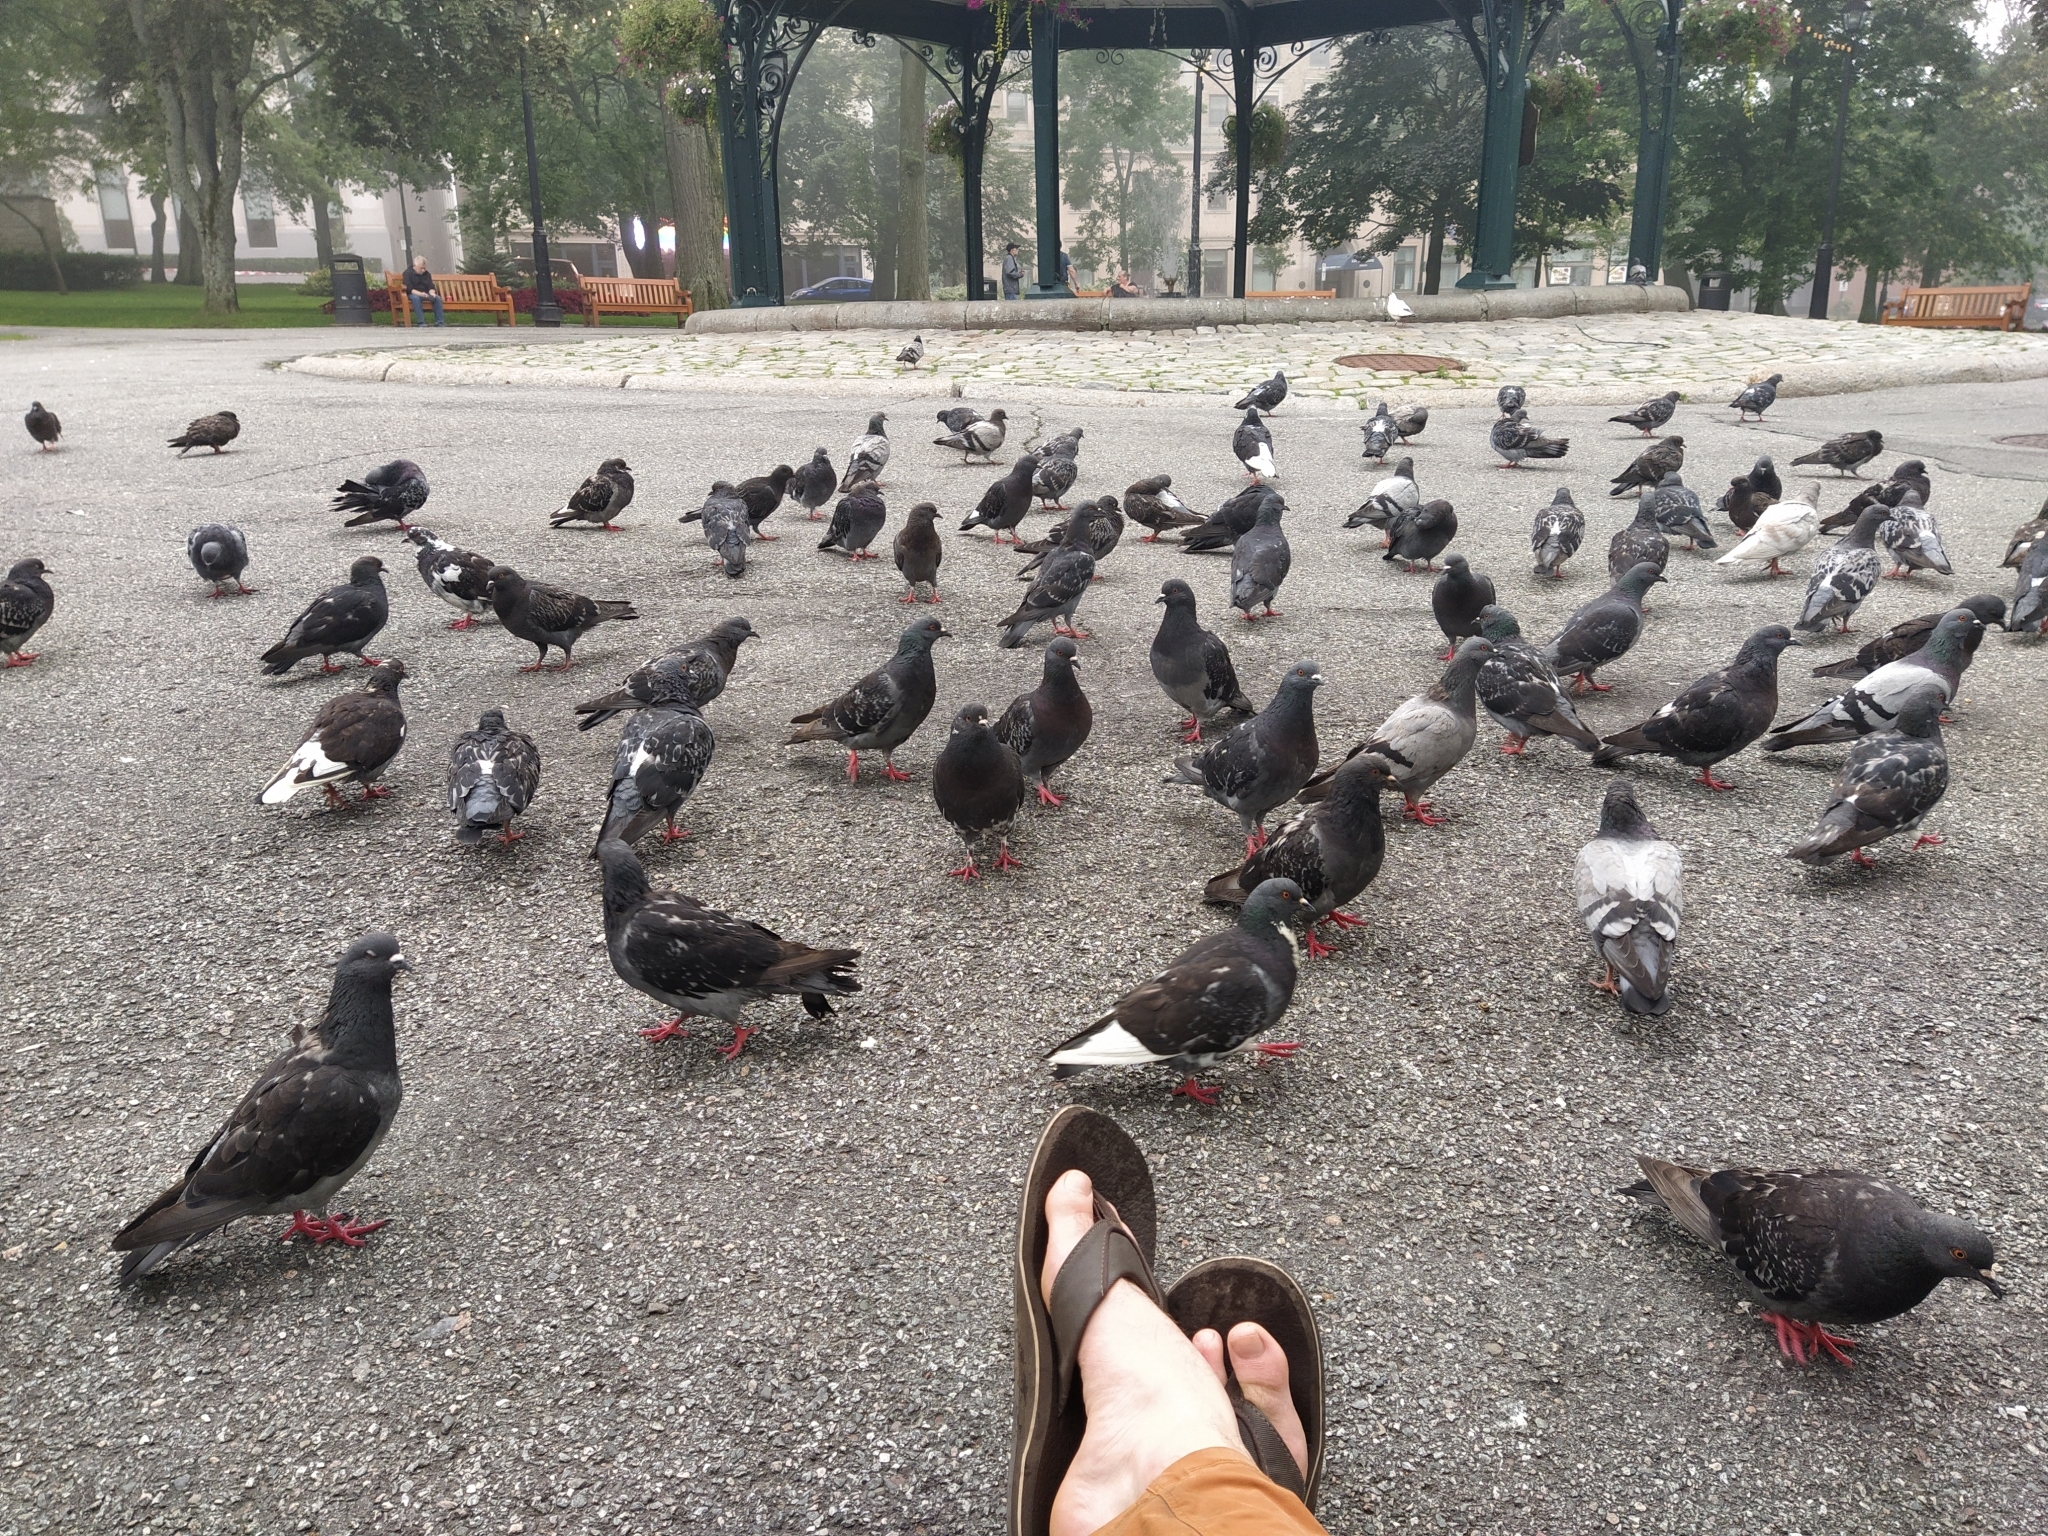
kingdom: Animalia
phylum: Chordata
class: Aves
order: Columbiformes
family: Columbidae
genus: Columba
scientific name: Columba livia
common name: Rock pigeon
